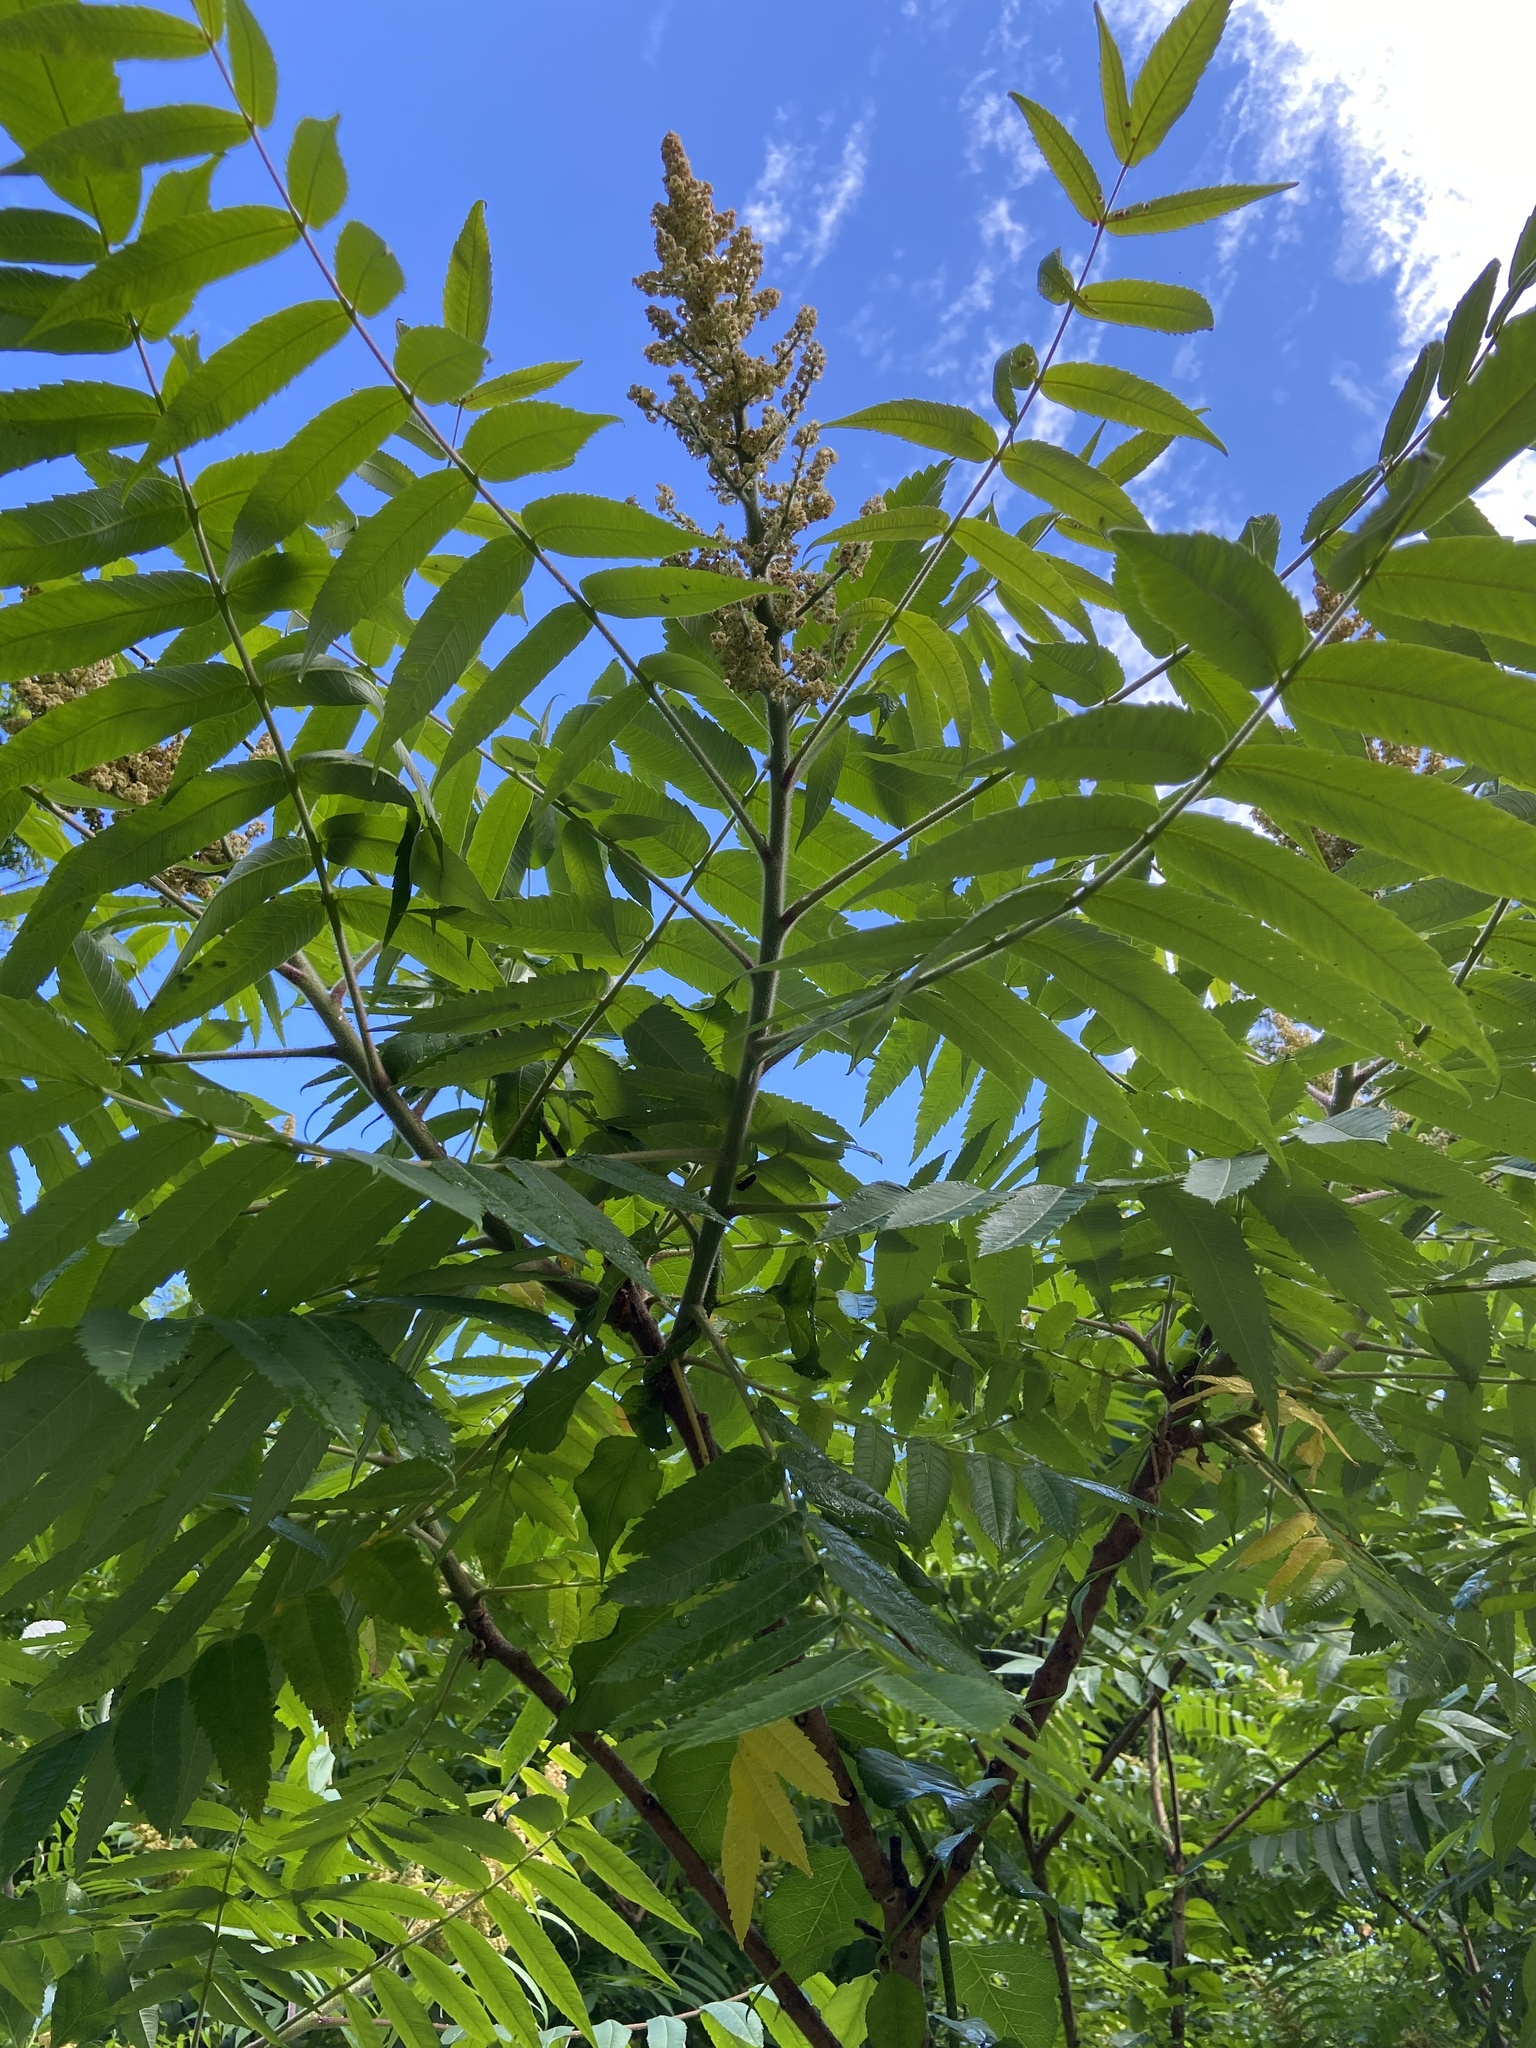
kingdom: Plantae
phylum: Tracheophyta
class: Magnoliopsida
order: Sapindales
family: Anacardiaceae
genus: Rhus
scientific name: Rhus typhina
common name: Staghorn sumac
